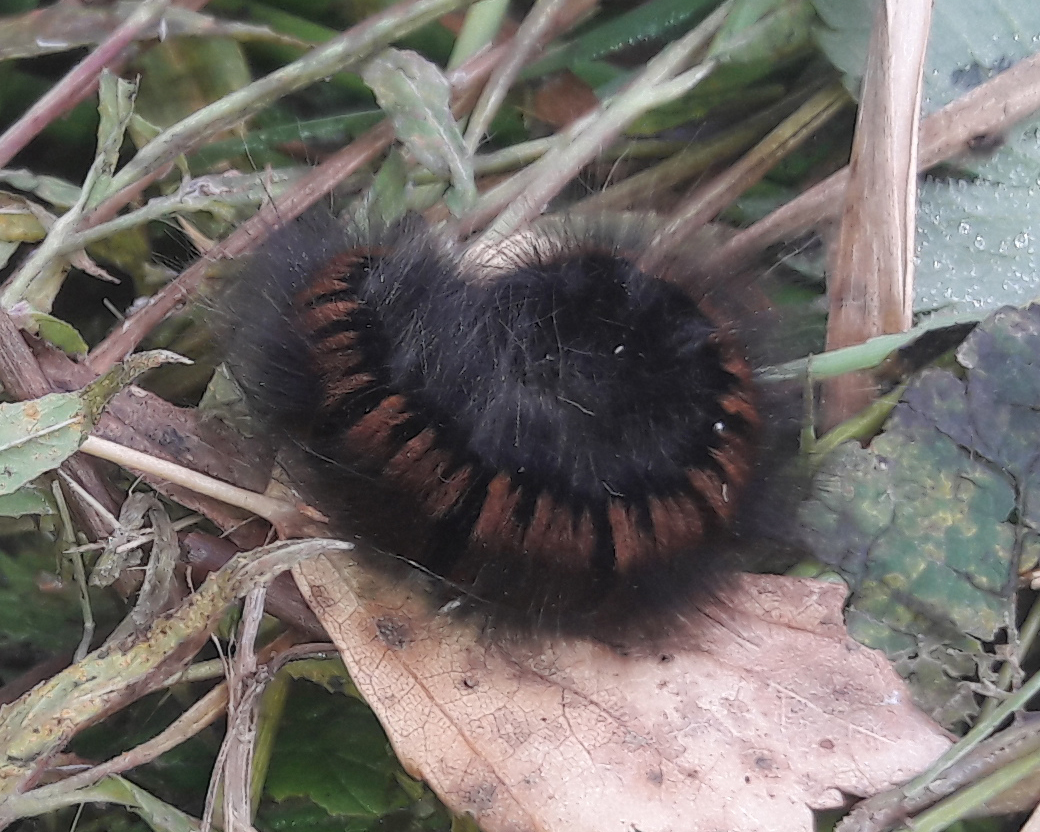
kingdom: Animalia
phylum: Arthropoda
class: Insecta
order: Lepidoptera
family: Lasiocampidae
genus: Macrothylacia
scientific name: Macrothylacia rubi
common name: Fox moth
